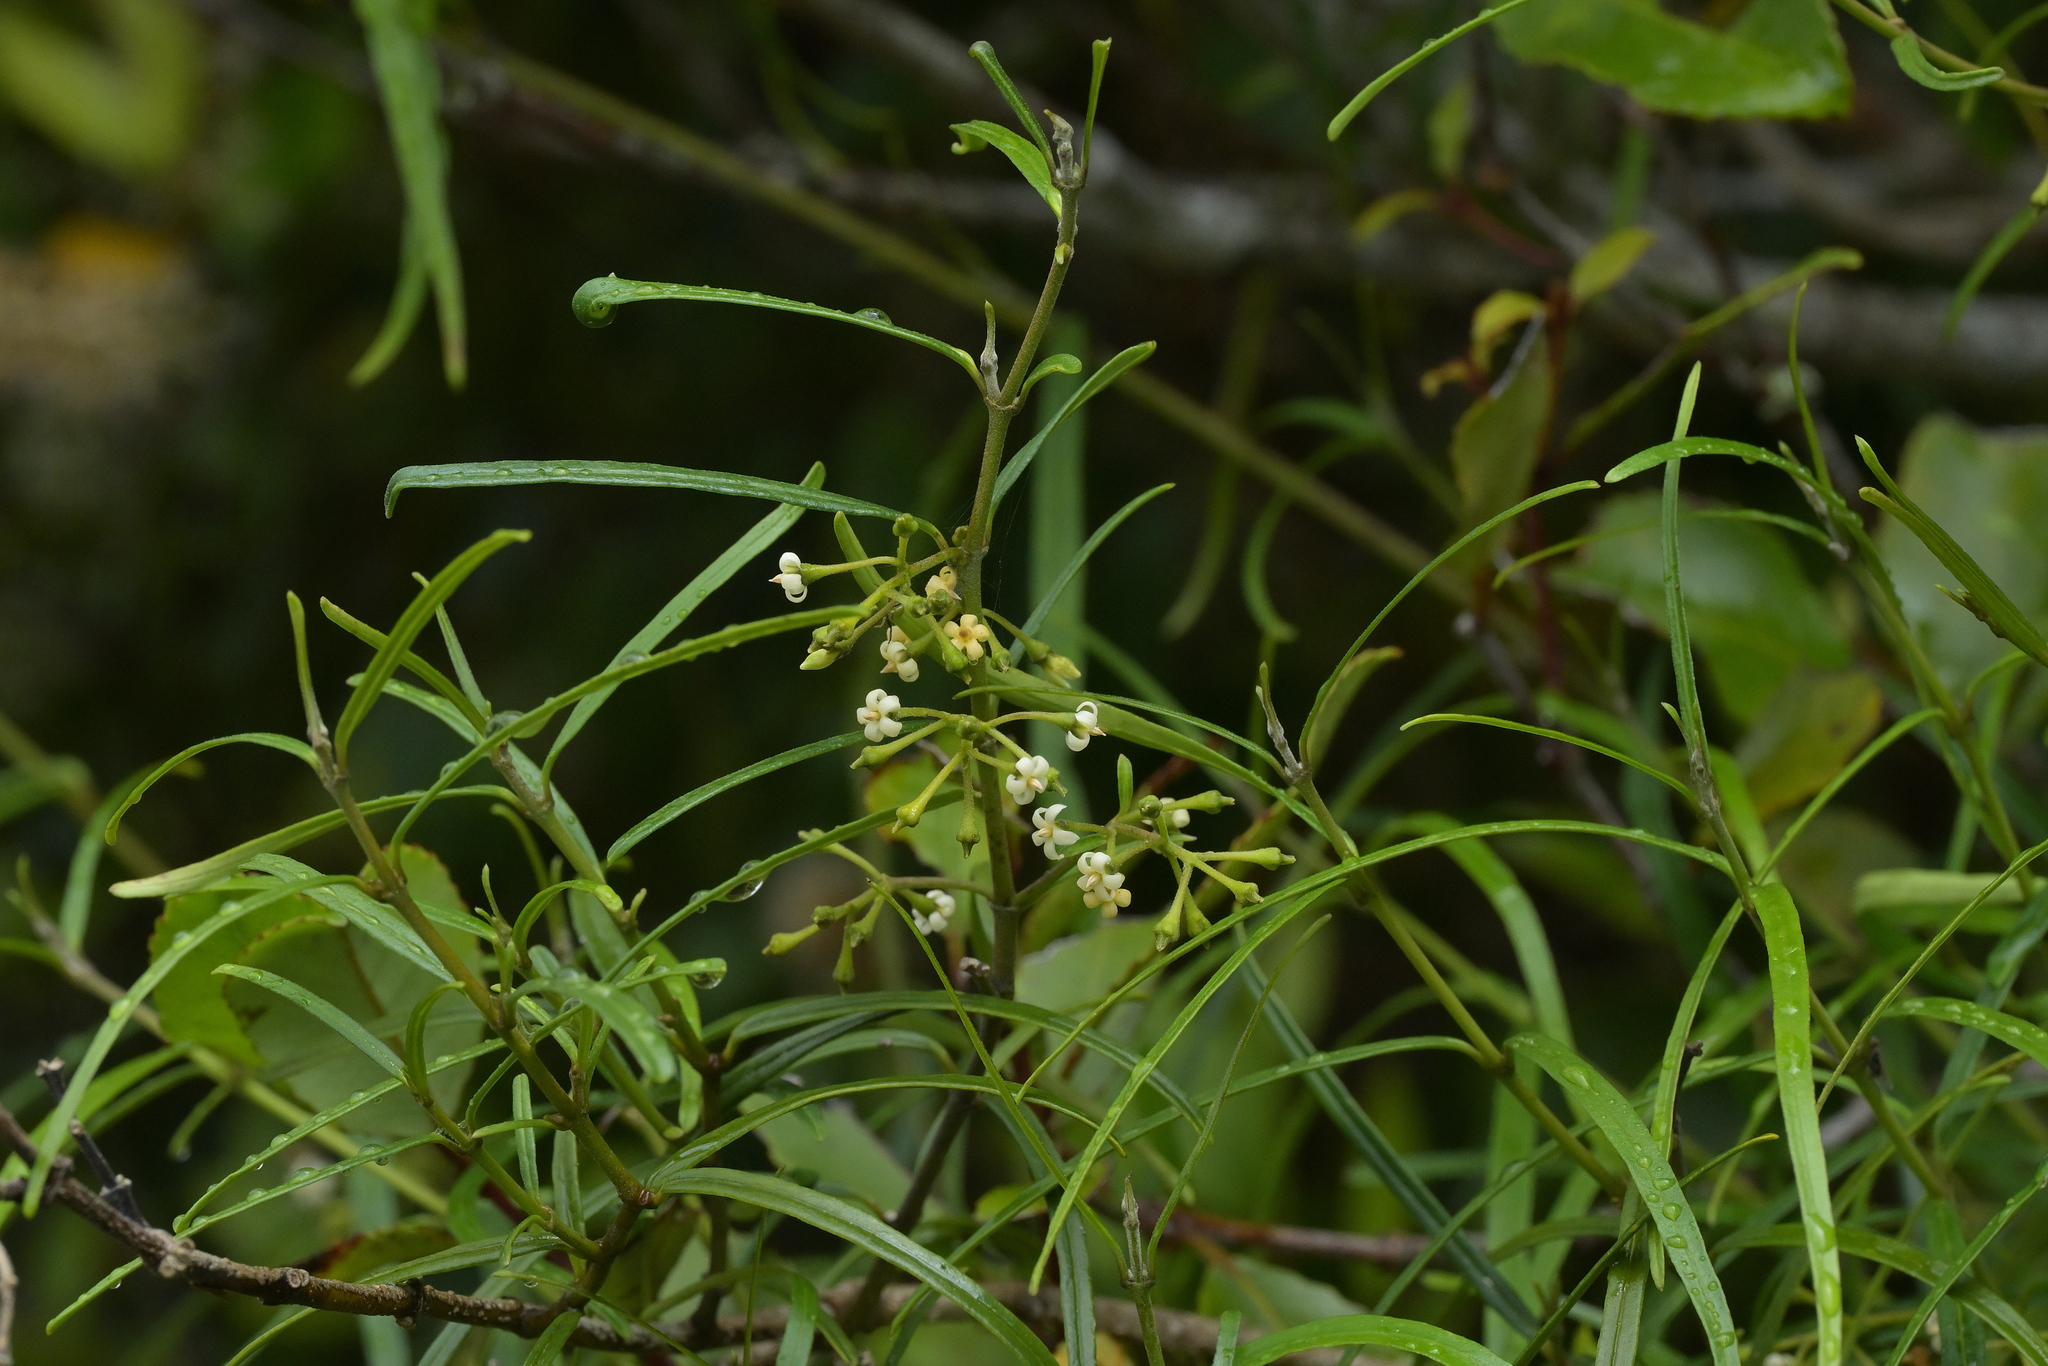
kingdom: Plantae
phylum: Tracheophyta
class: Magnoliopsida
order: Gentianales
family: Apocynaceae
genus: Parsonsia
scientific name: Parsonsia capsularis
